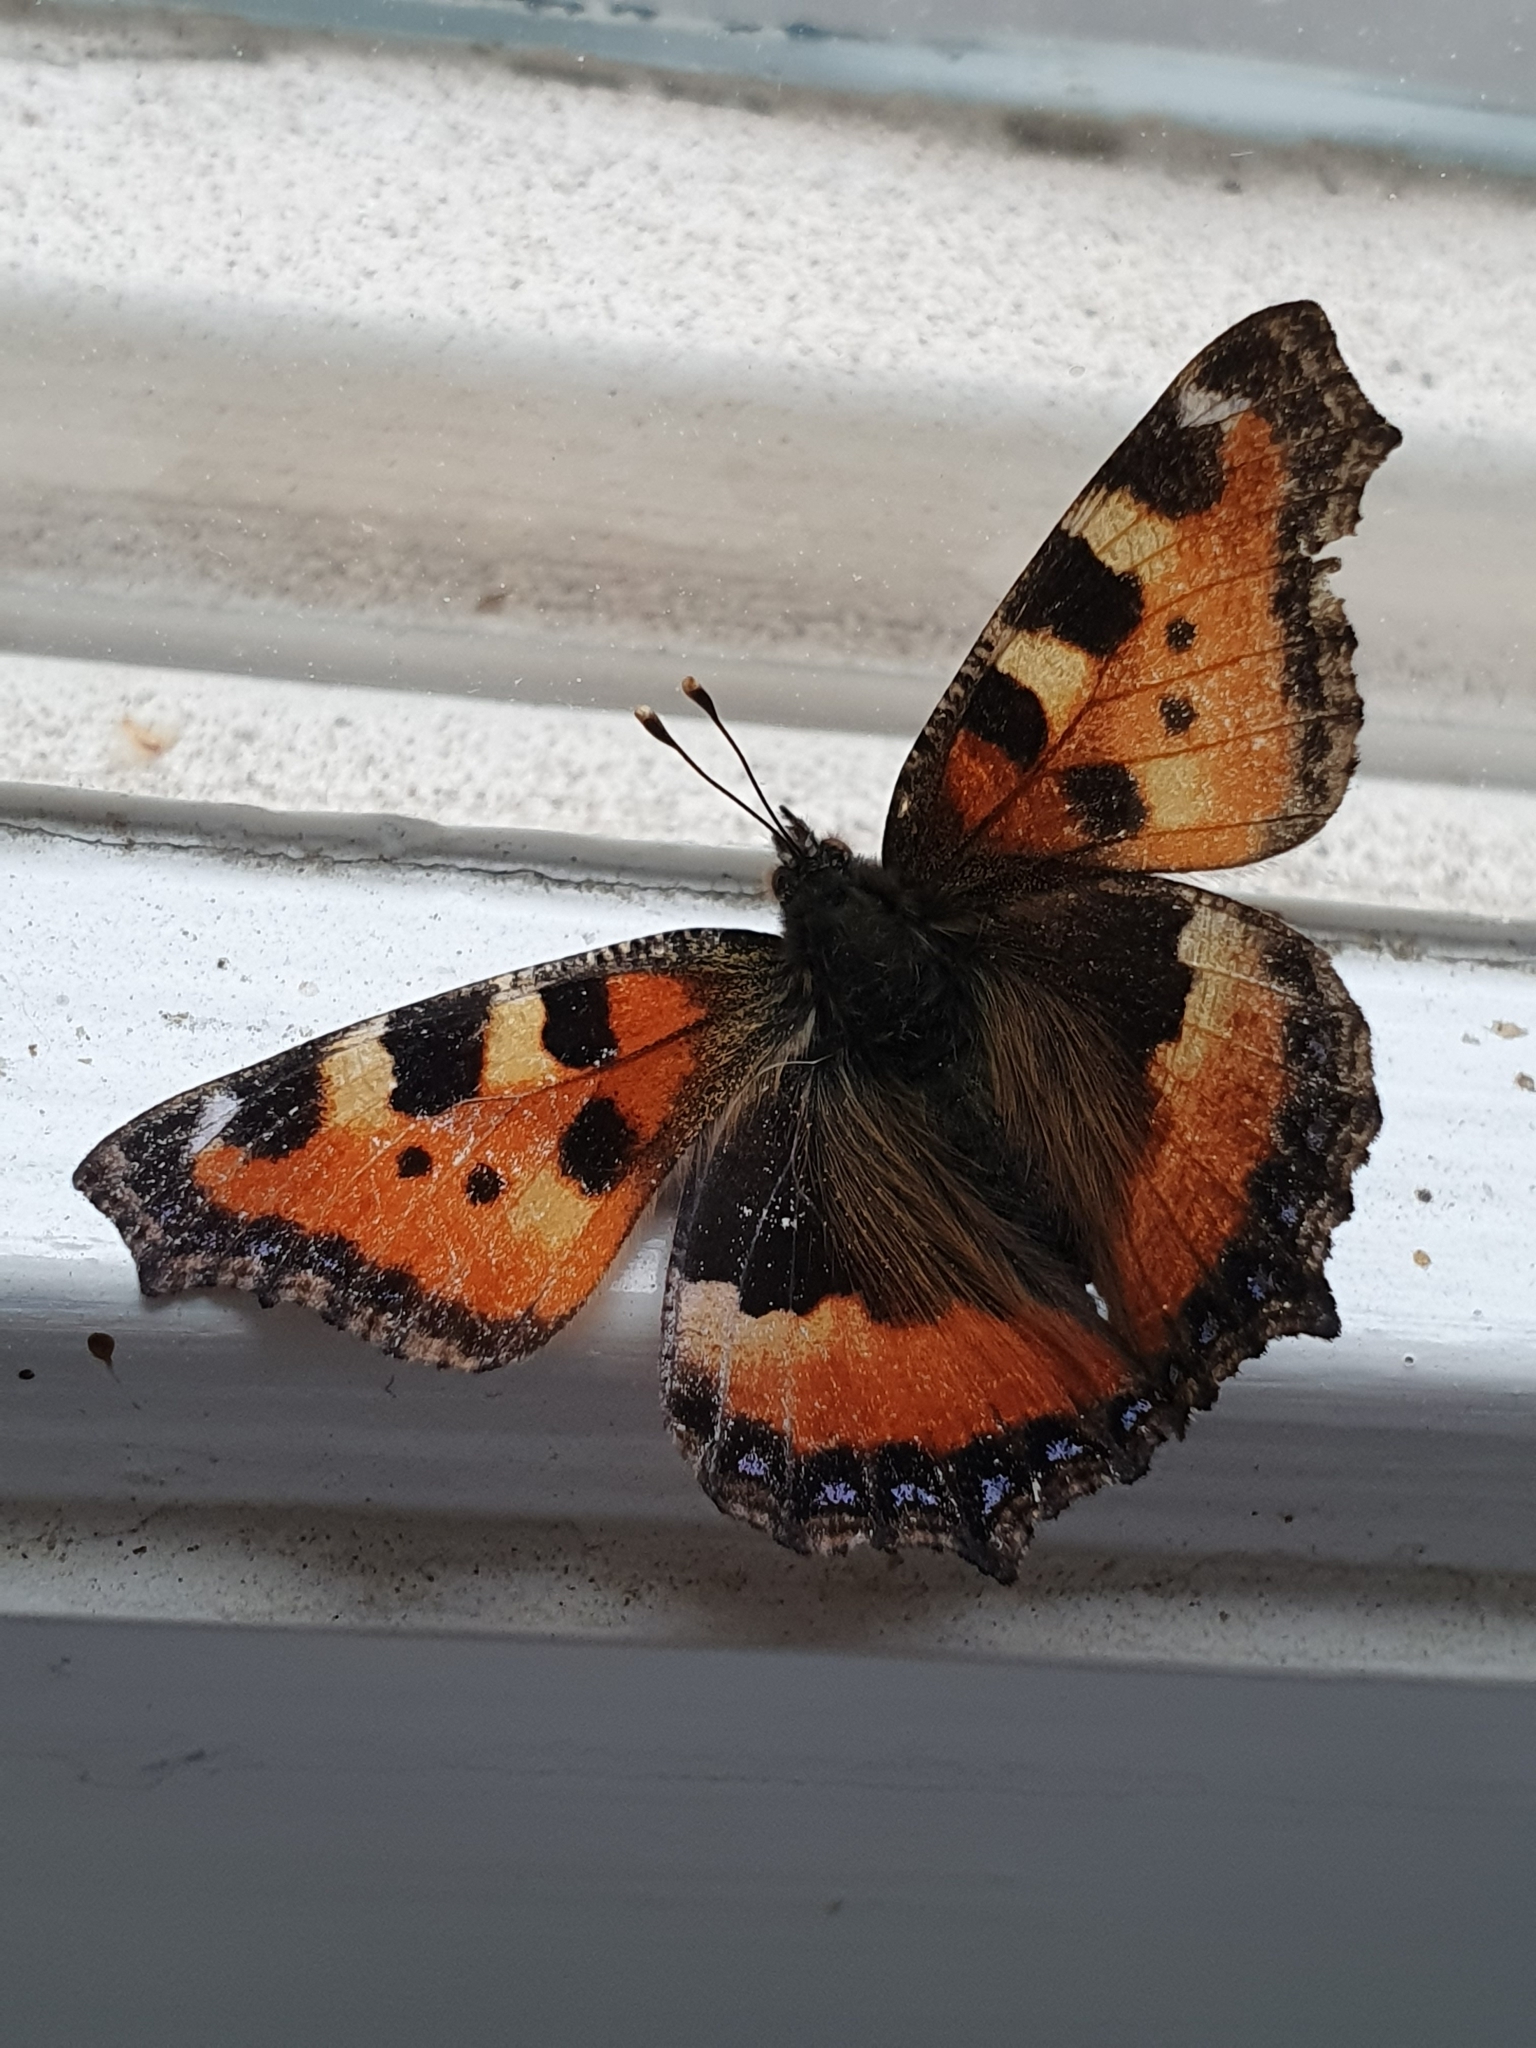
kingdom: Animalia
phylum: Arthropoda
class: Insecta
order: Lepidoptera
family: Nymphalidae
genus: Aglais
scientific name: Aglais urticae
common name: Small tortoiseshell
